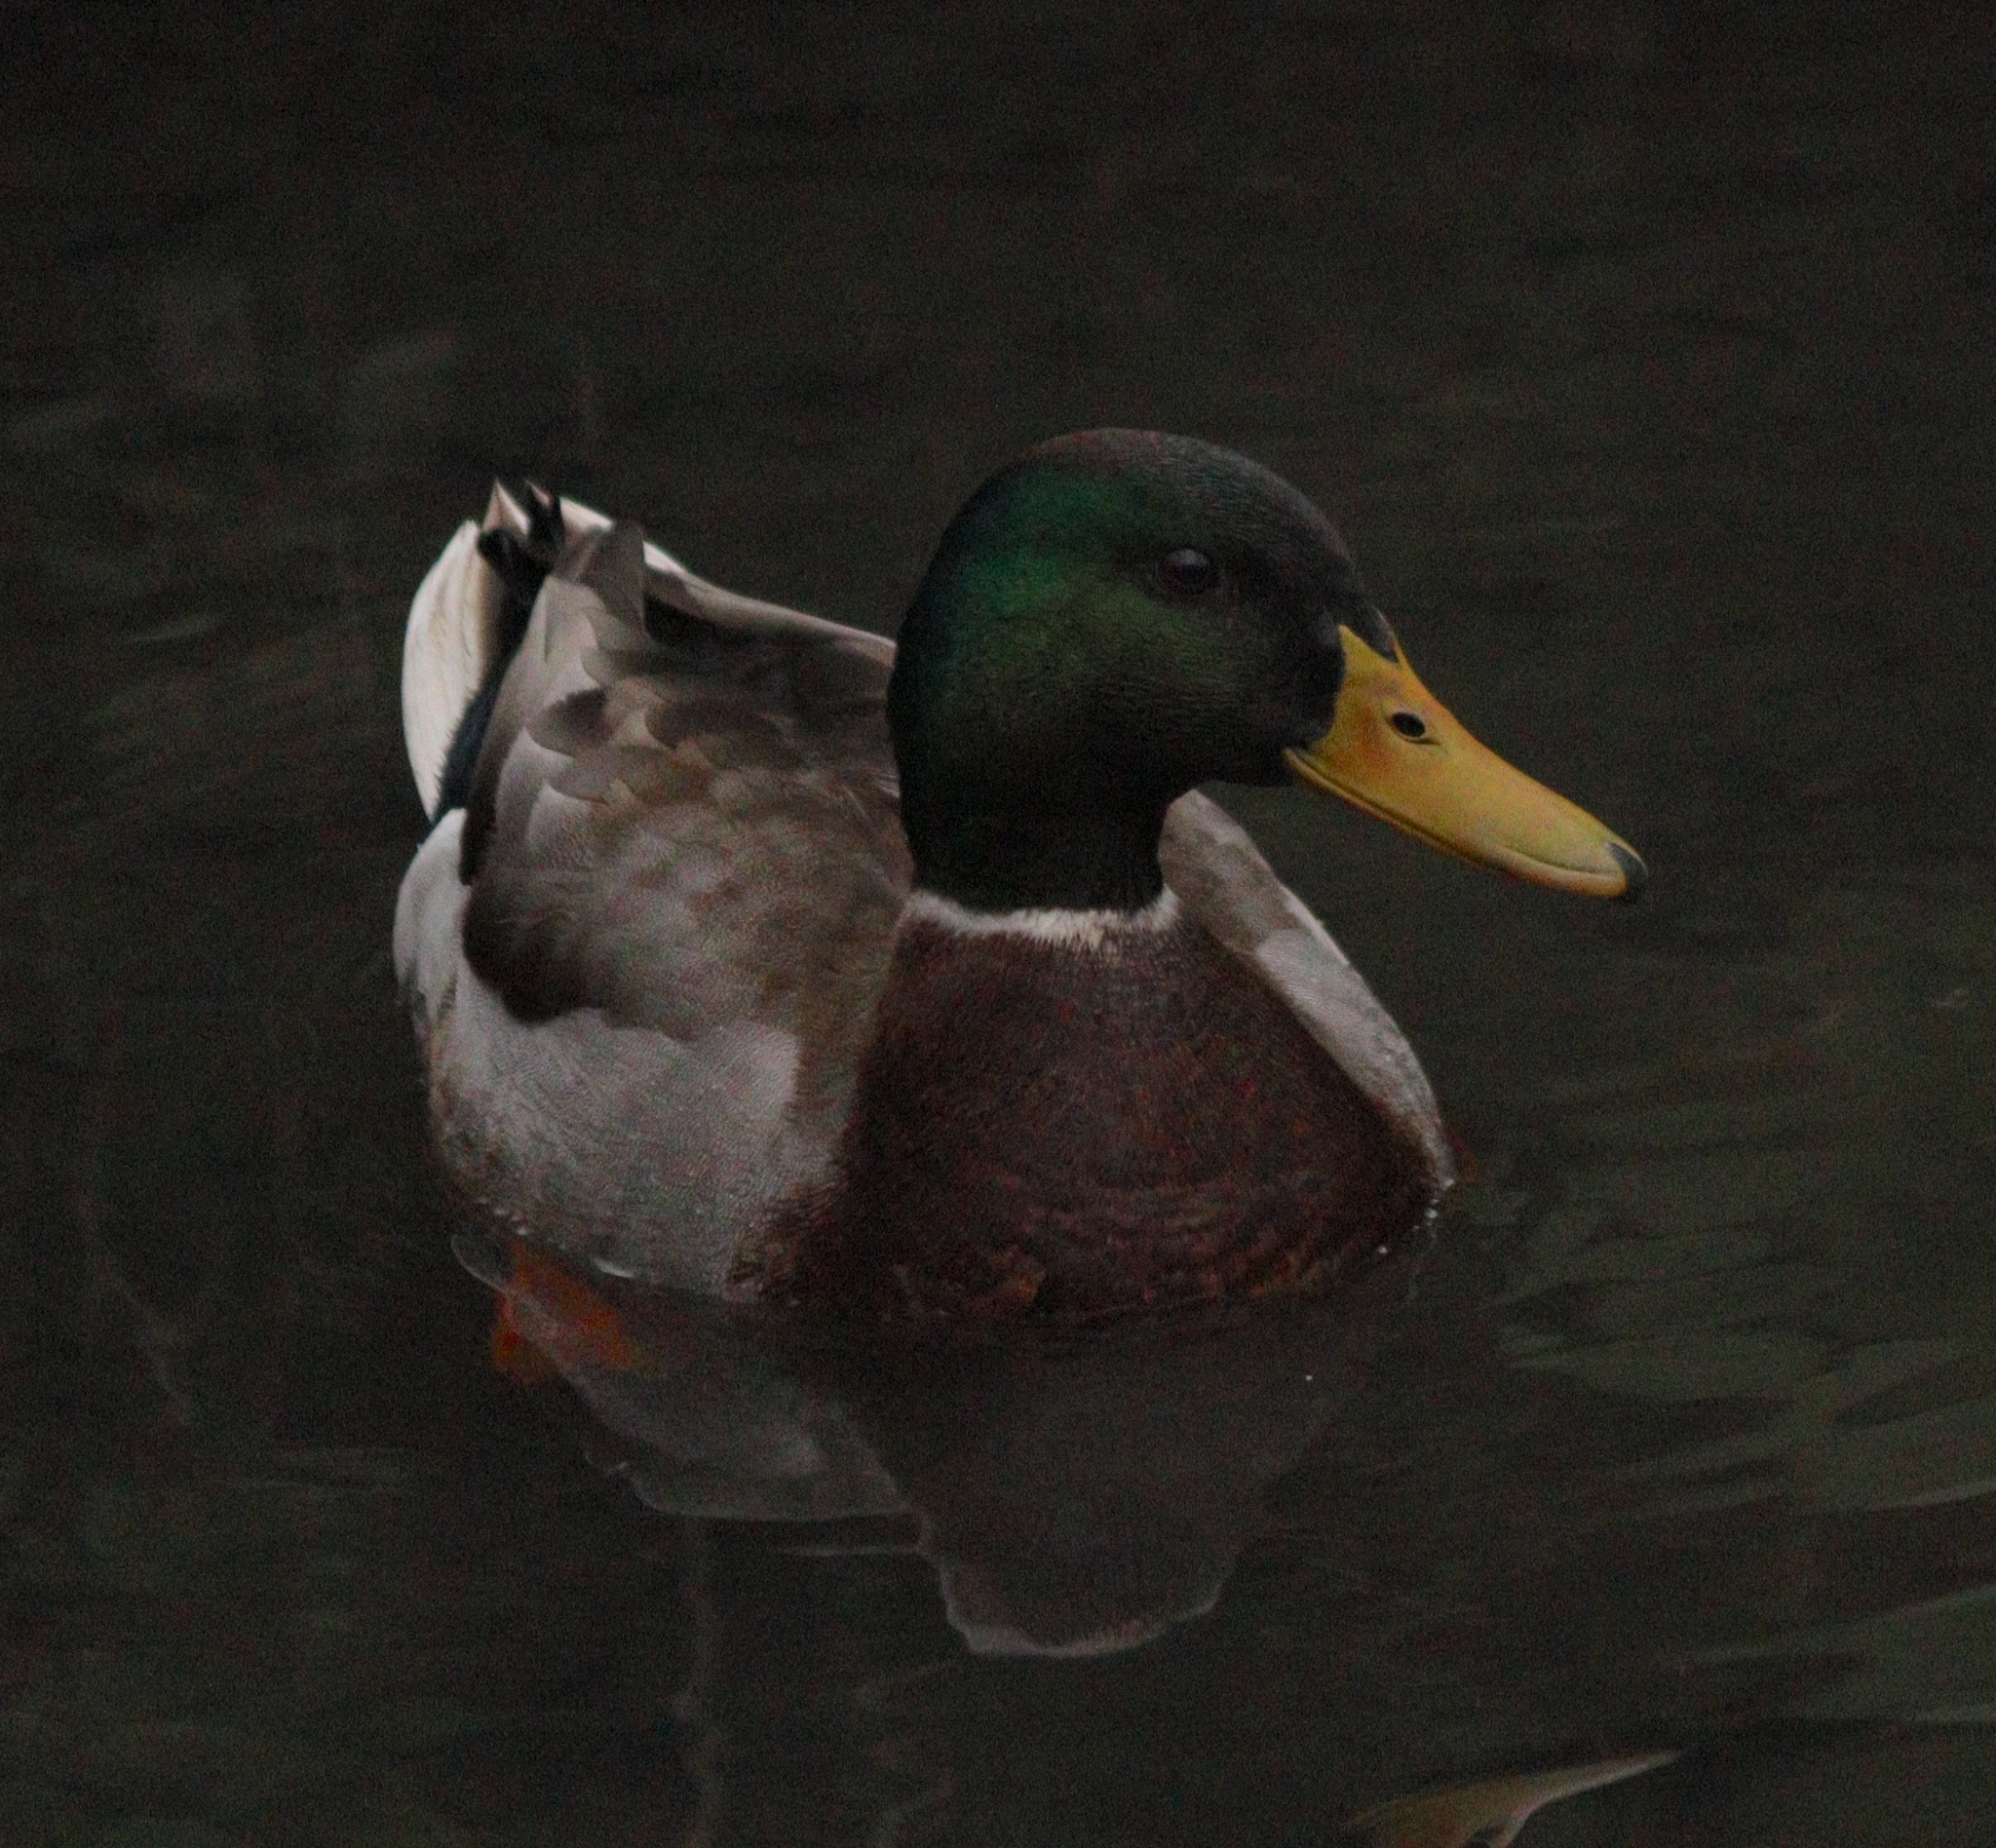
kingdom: Animalia
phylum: Chordata
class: Aves
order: Anseriformes
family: Anatidae
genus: Anas
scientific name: Anas platyrhynchos
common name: Mallard
